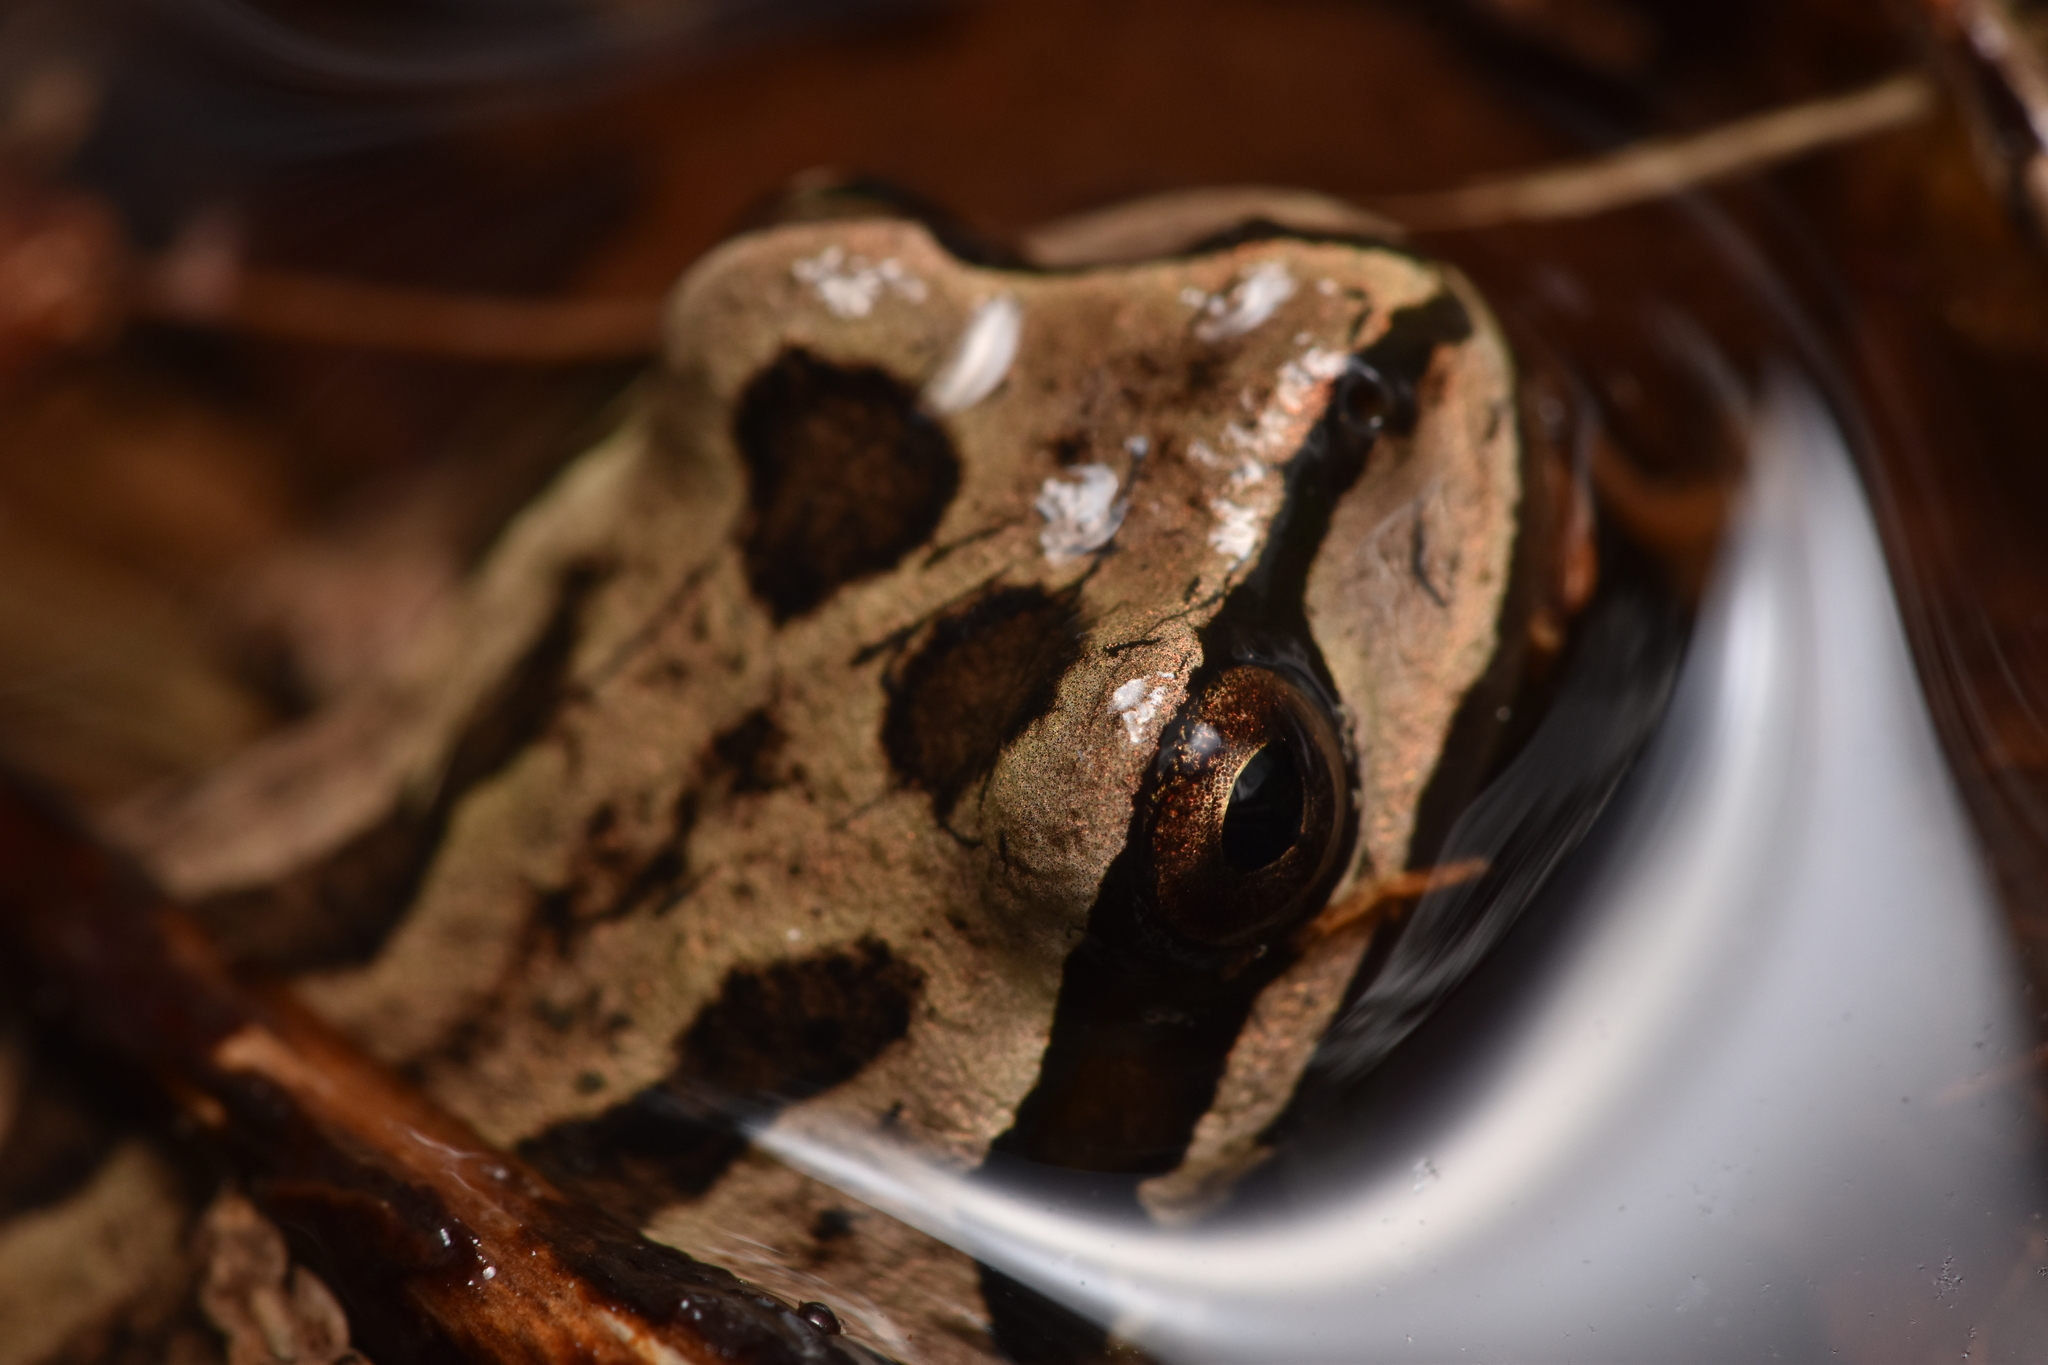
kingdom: Animalia
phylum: Chordata
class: Amphibia
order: Anura
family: Hylidae
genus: Pseudacris
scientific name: Pseudacris regilla
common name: Pacific chorus frog
